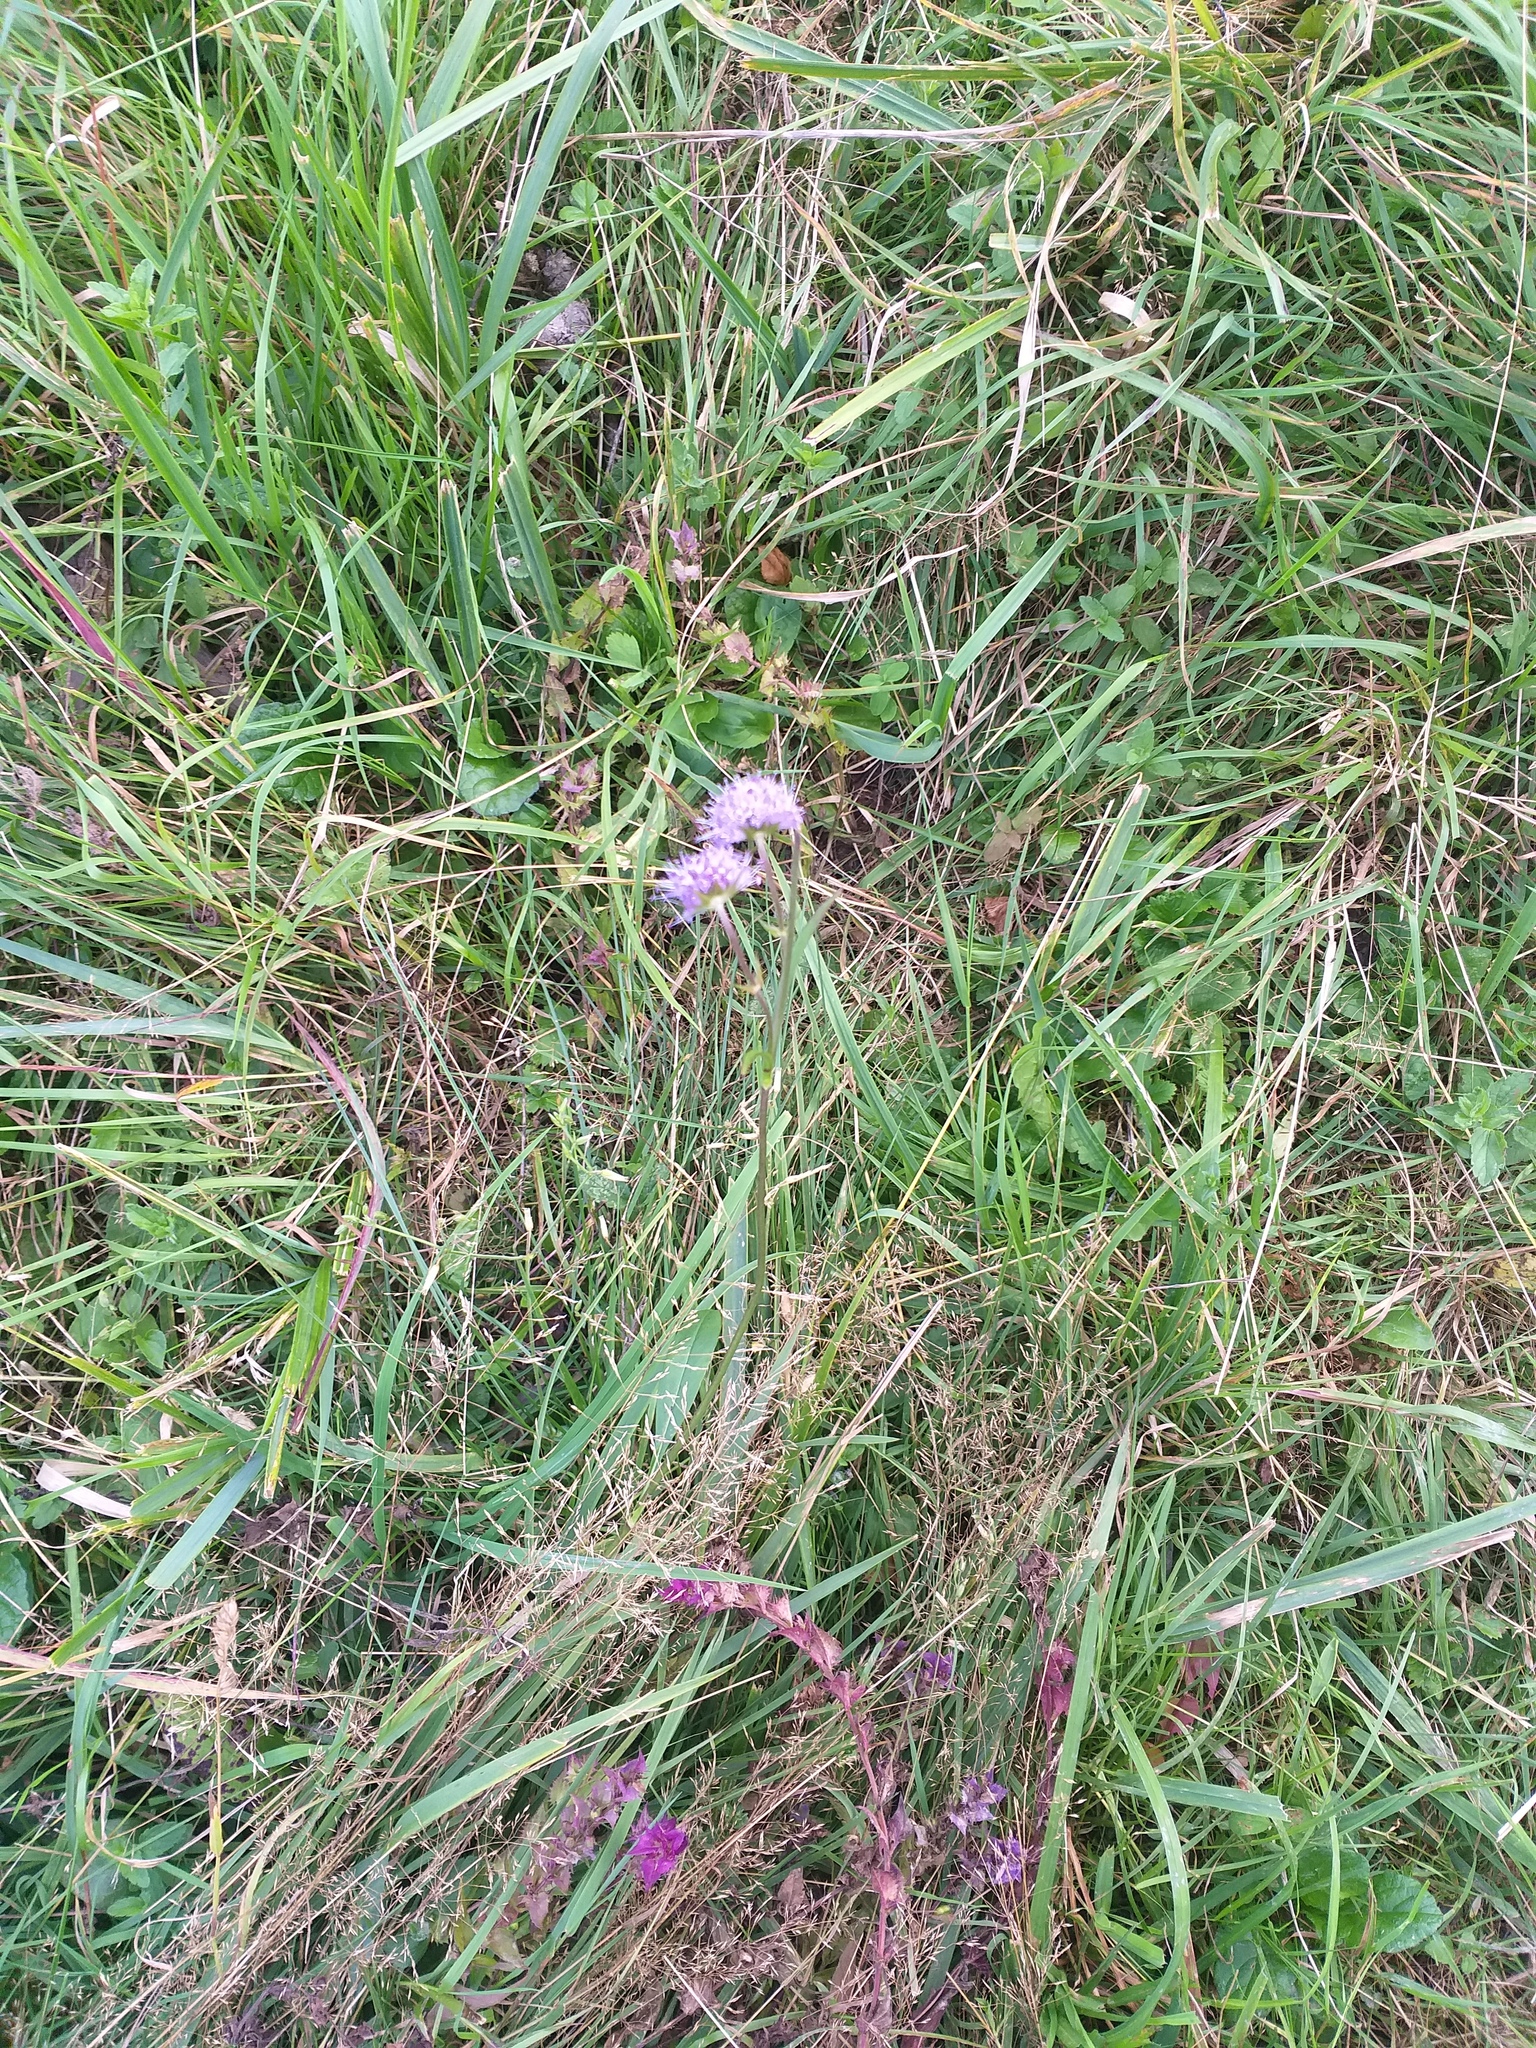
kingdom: Plantae
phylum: Tracheophyta
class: Magnoliopsida
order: Dipsacales
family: Caprifoliaceae
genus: Succisa
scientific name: Succisa pratensis
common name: Devil's-bit
